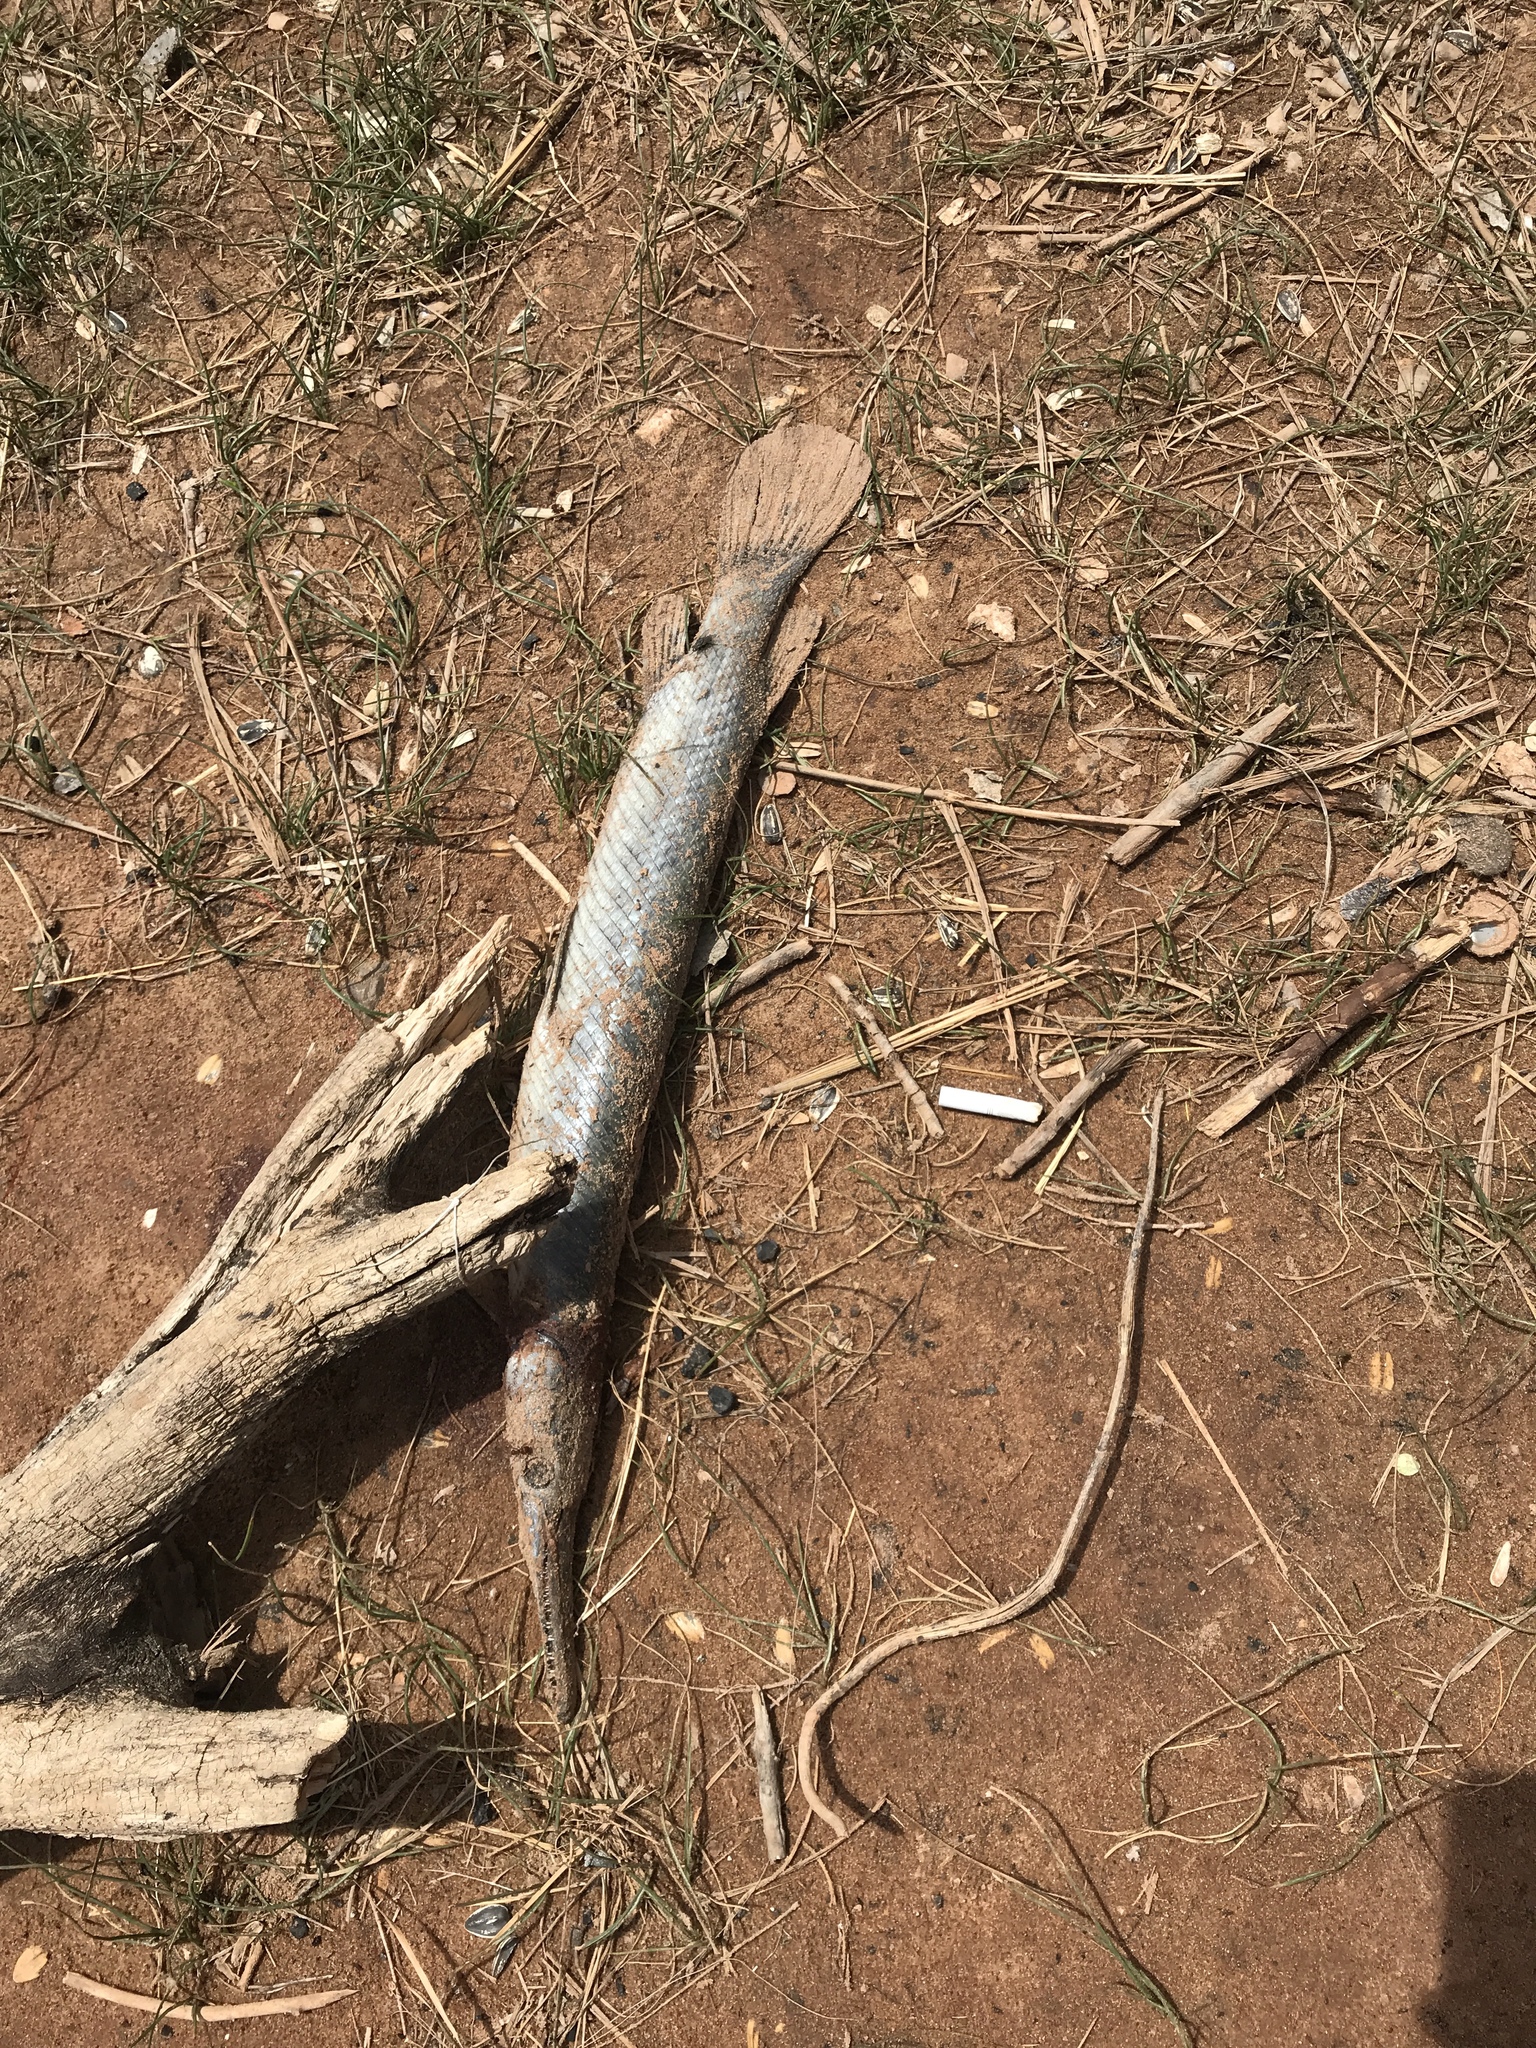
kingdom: Animalia
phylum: Chordata
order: Lepisosteiformes
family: Lepisosteidae
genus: Lepisosteus
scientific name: Lepisosteus oculatus
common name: Spotted gar
